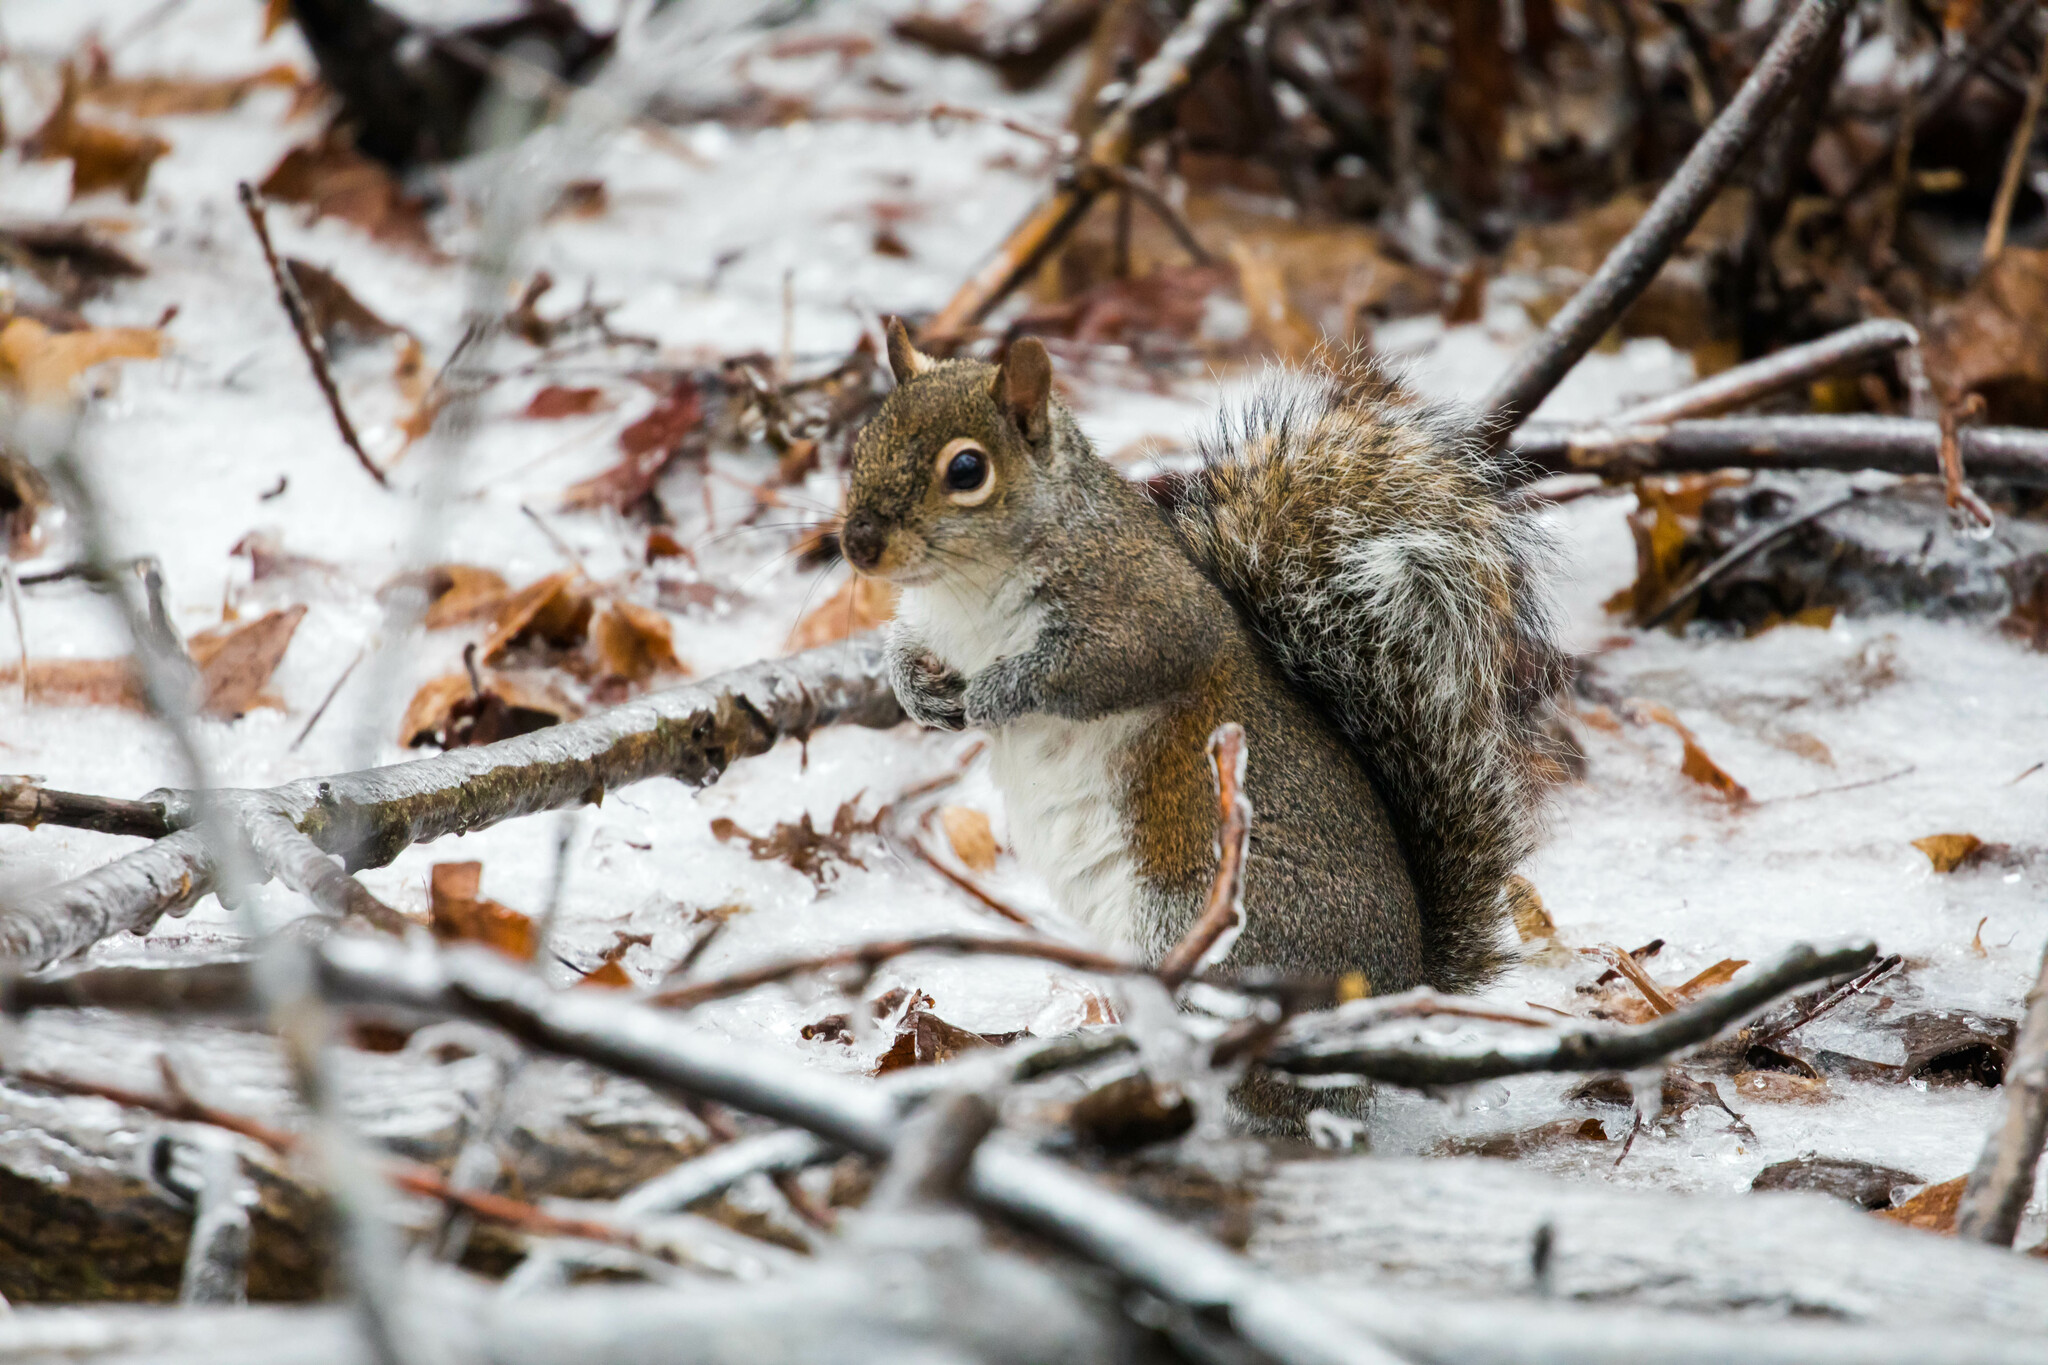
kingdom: Animalia
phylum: Chordata
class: Mammalia
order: Rodentia
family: Sciuridae
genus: Sciurus
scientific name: Sciurus carolinensis
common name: Eastern gray squirrel
